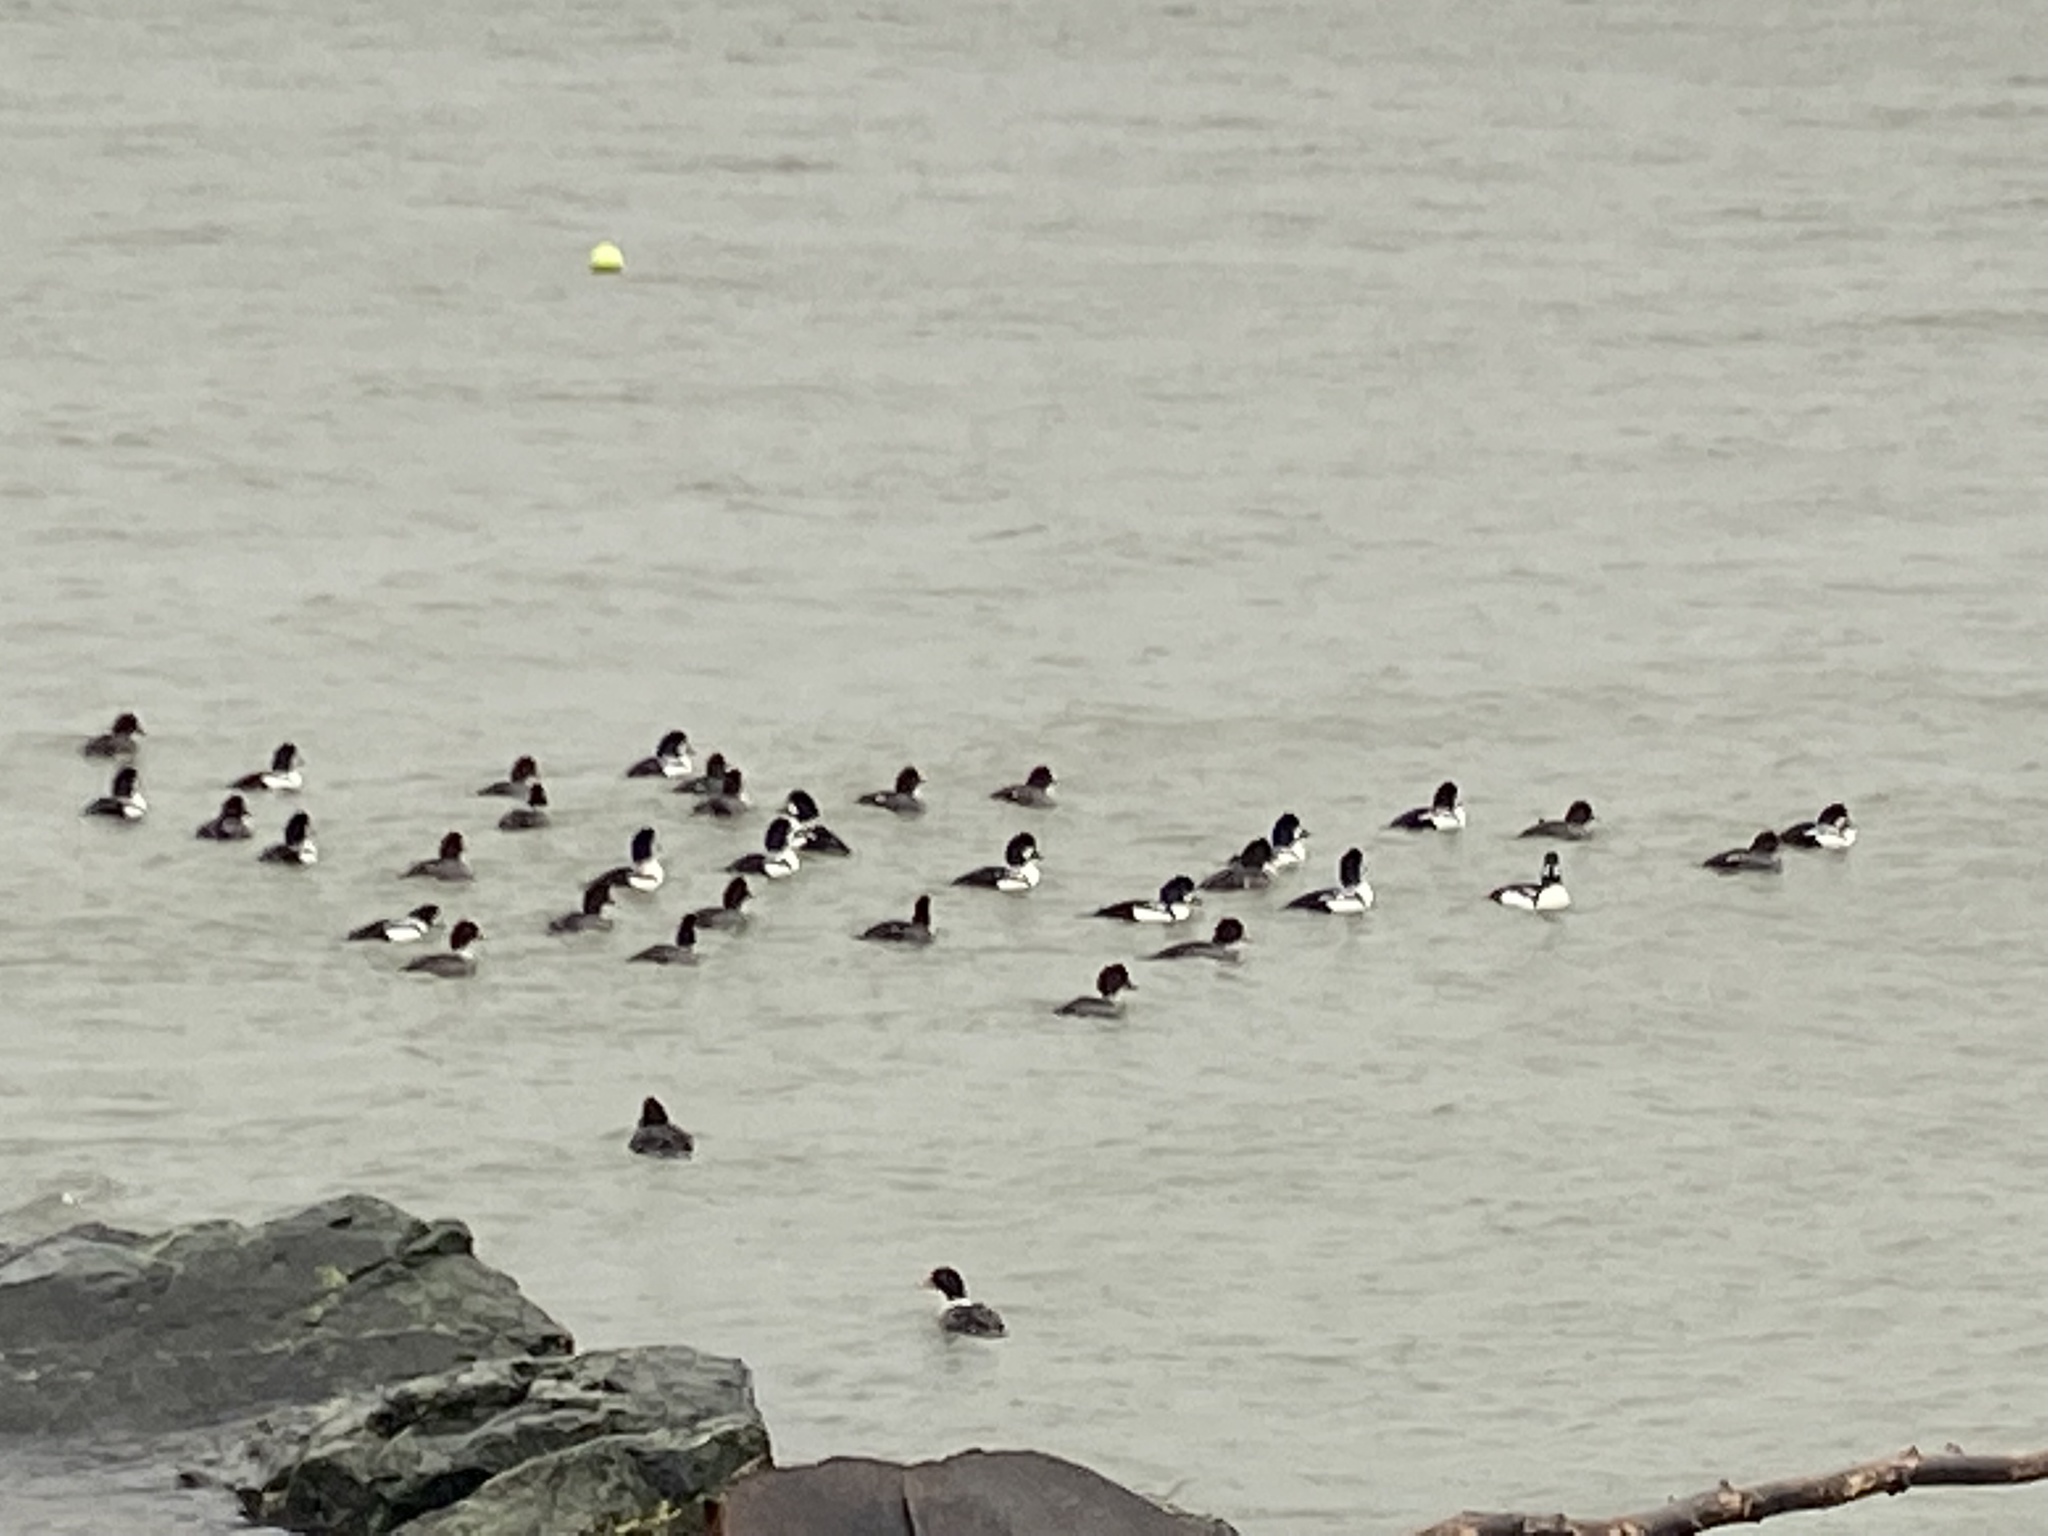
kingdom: Animalia
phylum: Chordata
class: Aves
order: Anseriformes
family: Anatidae
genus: Bucephala
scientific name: Bucephala islandica
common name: Barrow's goldeneye
